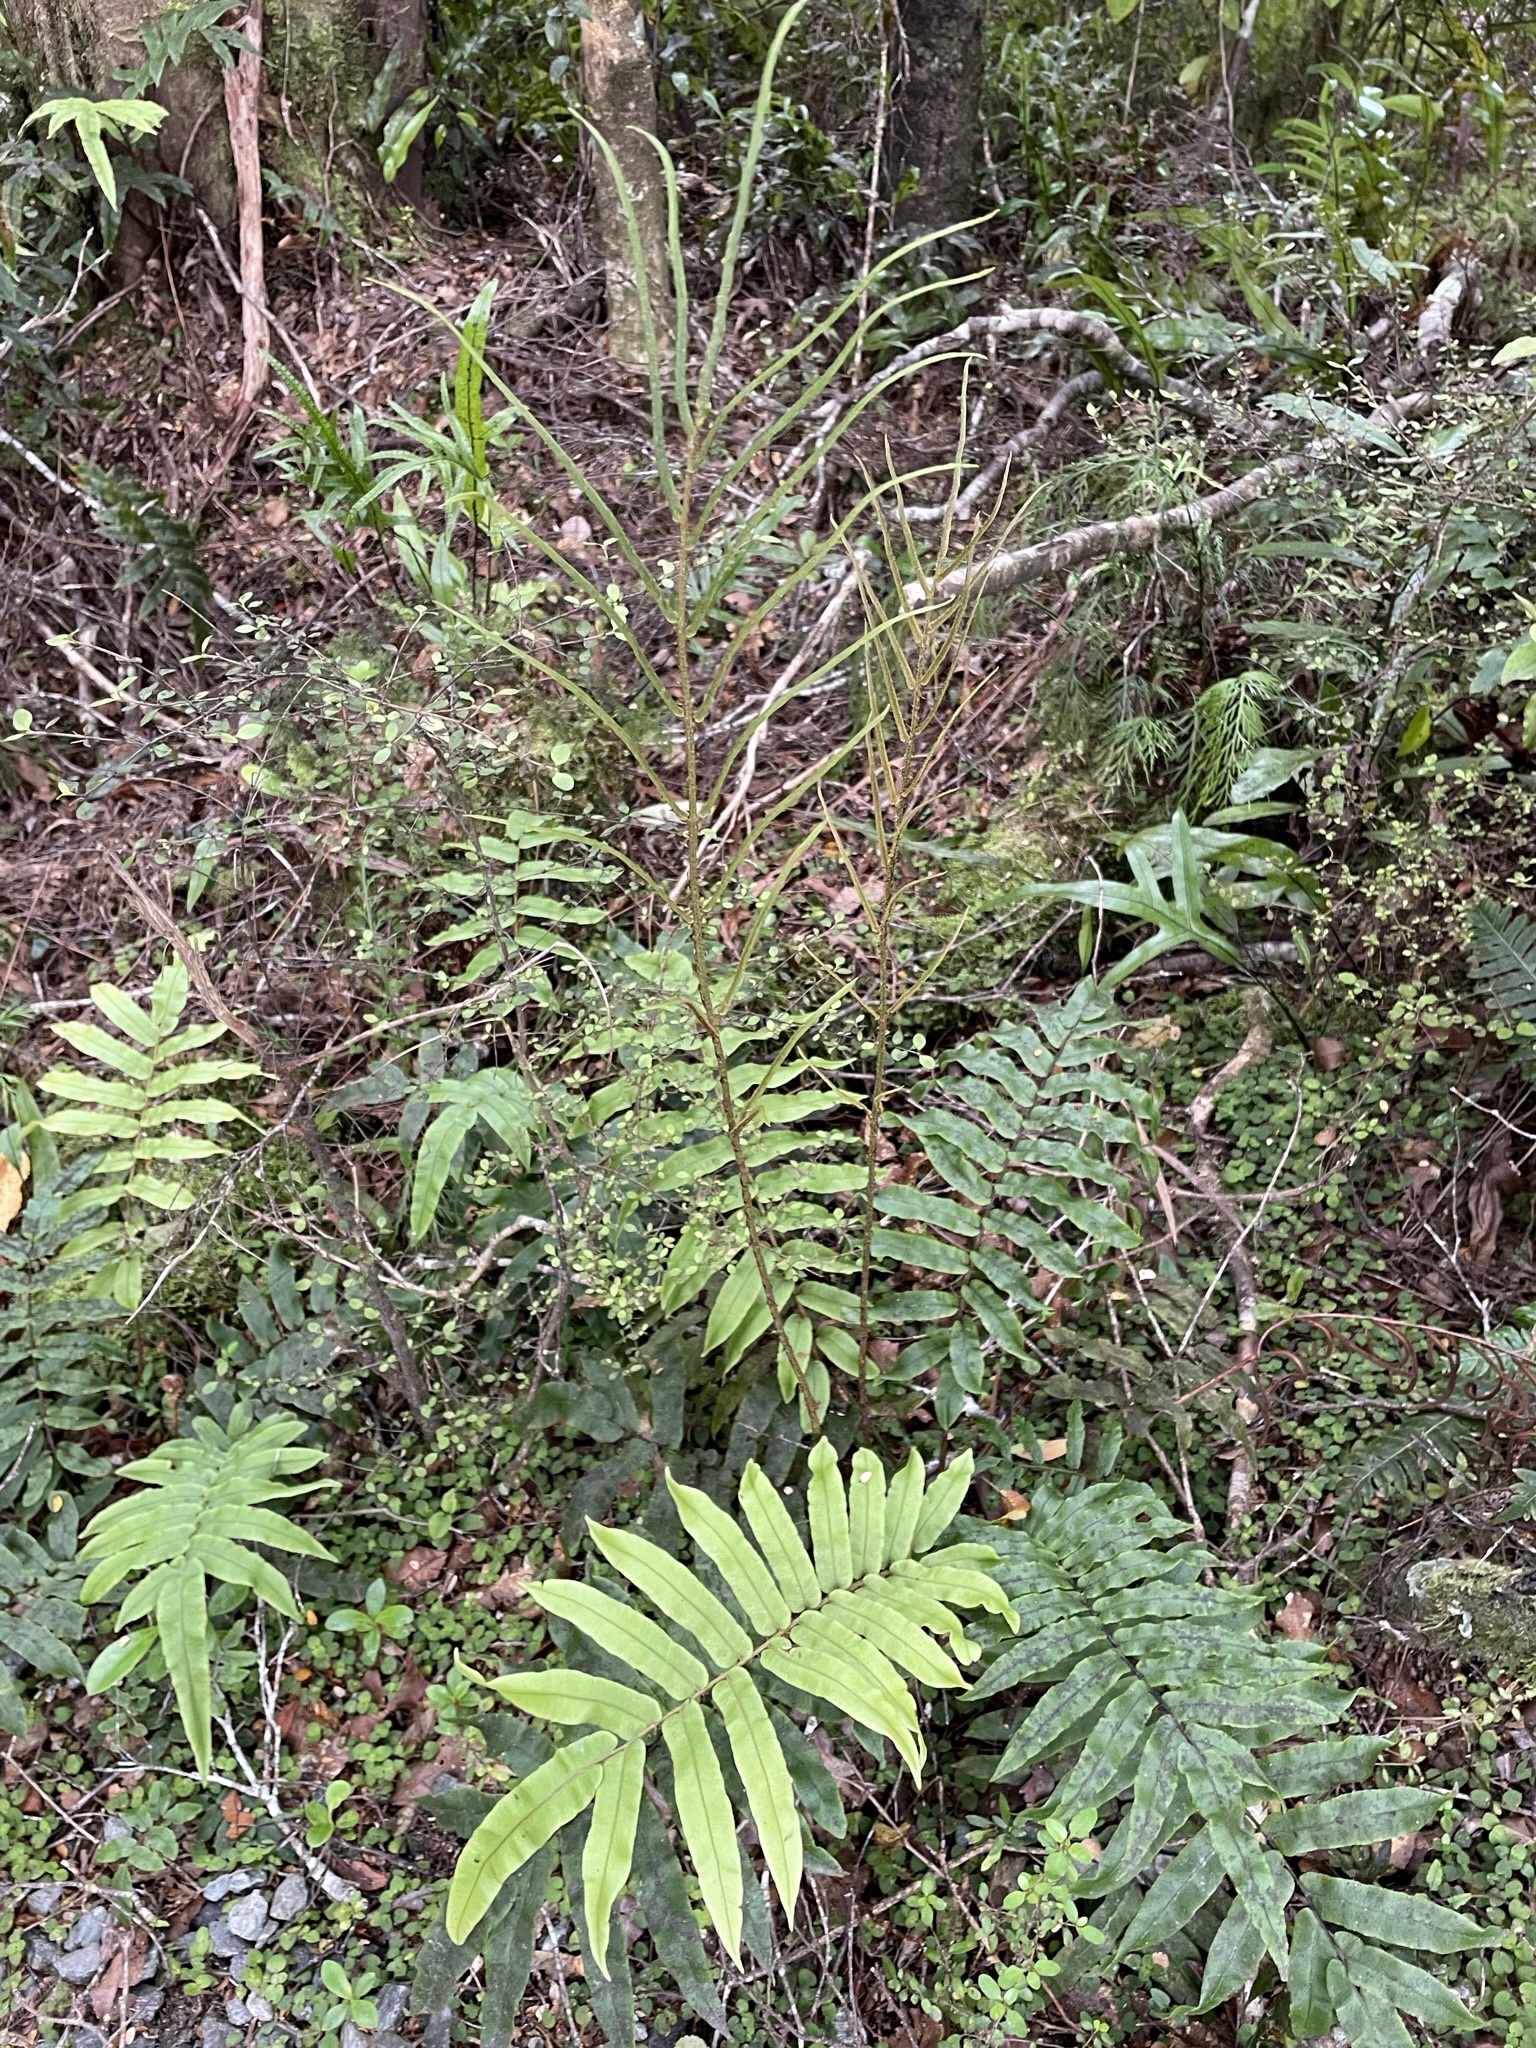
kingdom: Plantae
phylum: Tracheophyta
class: Polypodiopsida
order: Polypodiales
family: Blechnaceae
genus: Parablechnum
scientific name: Parablechnum procerum
